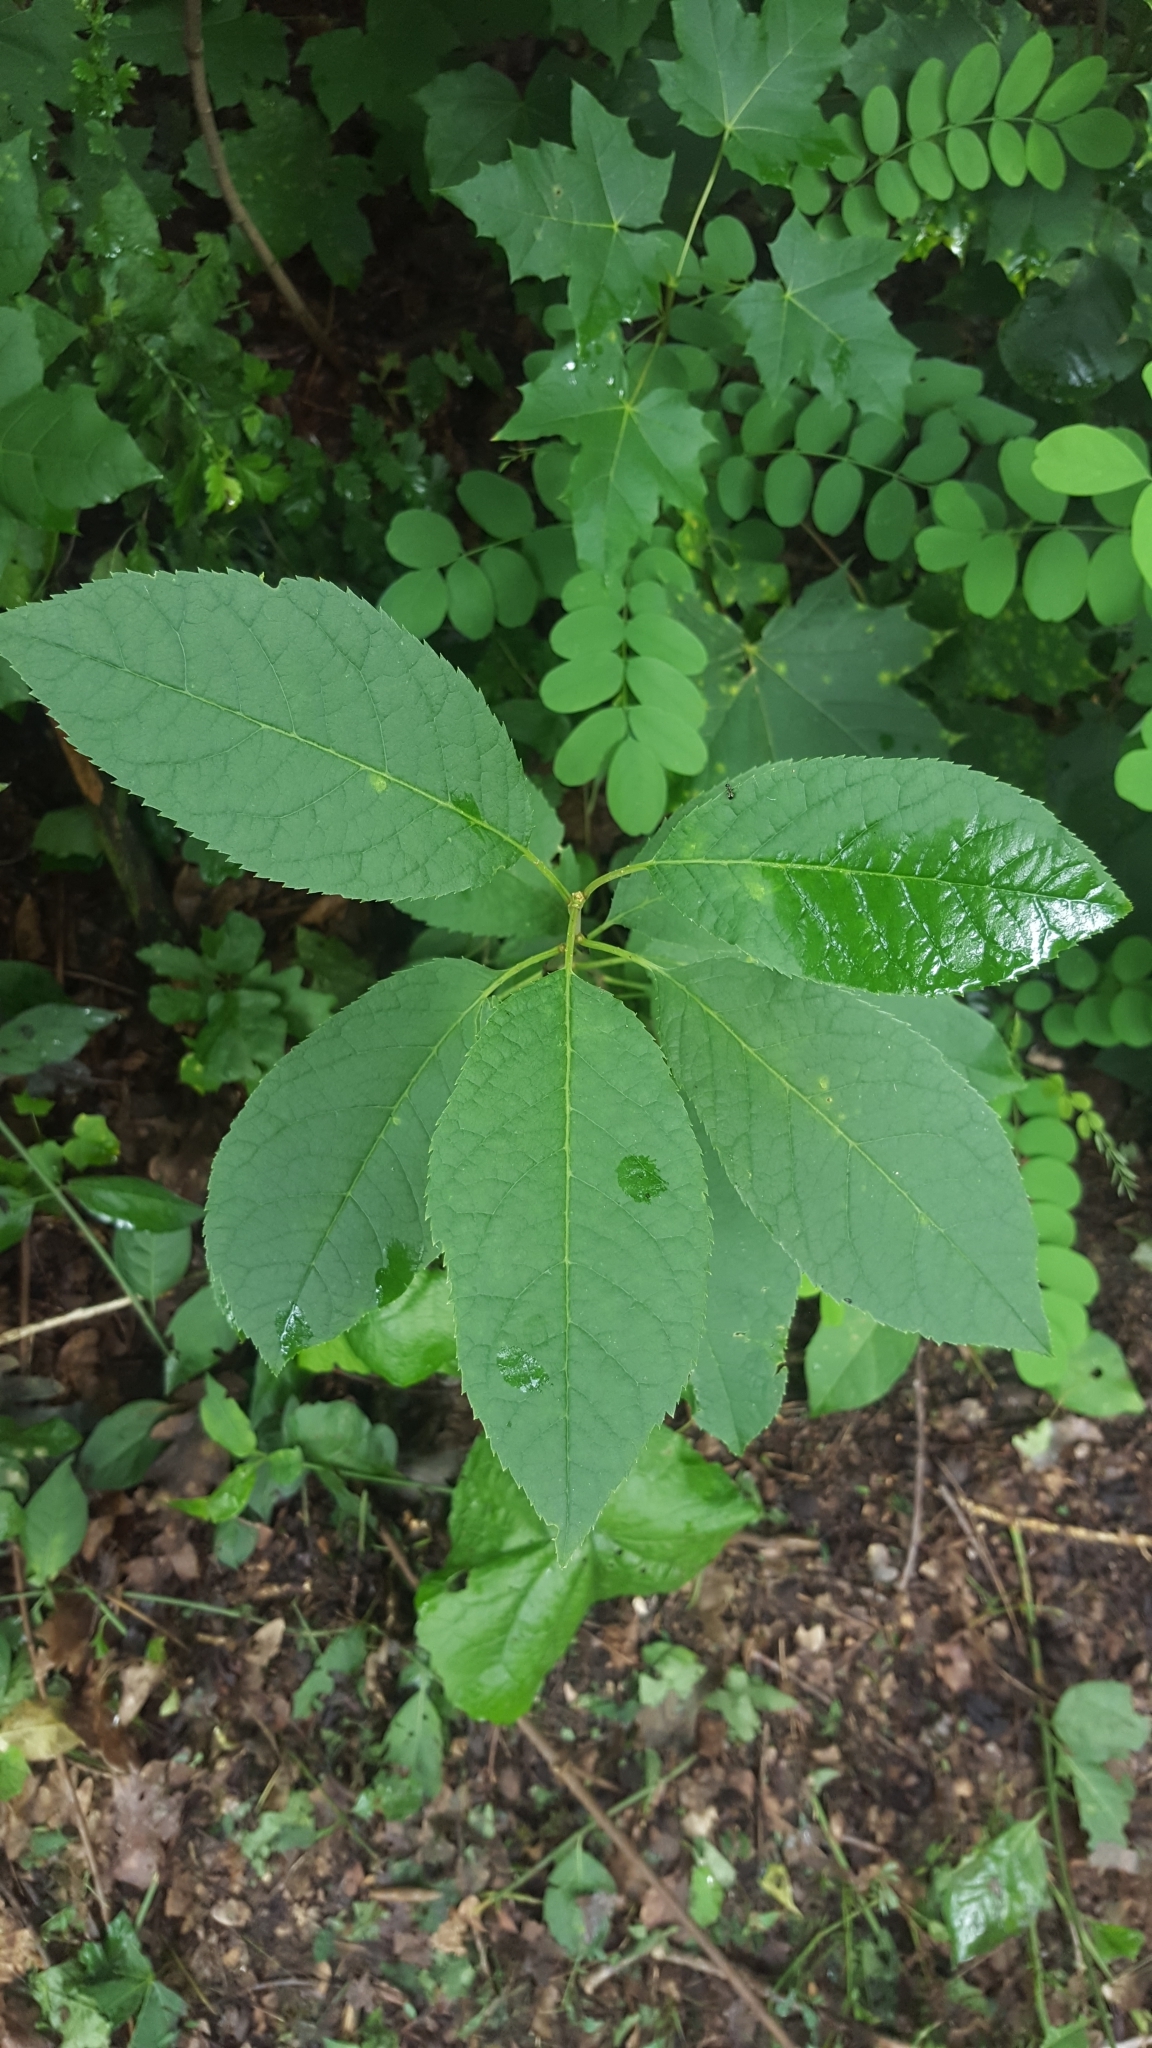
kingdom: Plantae
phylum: Tracheophyta
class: Magnoliopsida
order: Rosales
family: Rosaceae
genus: Prunus
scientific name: Prunus padus
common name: Bird cherry
